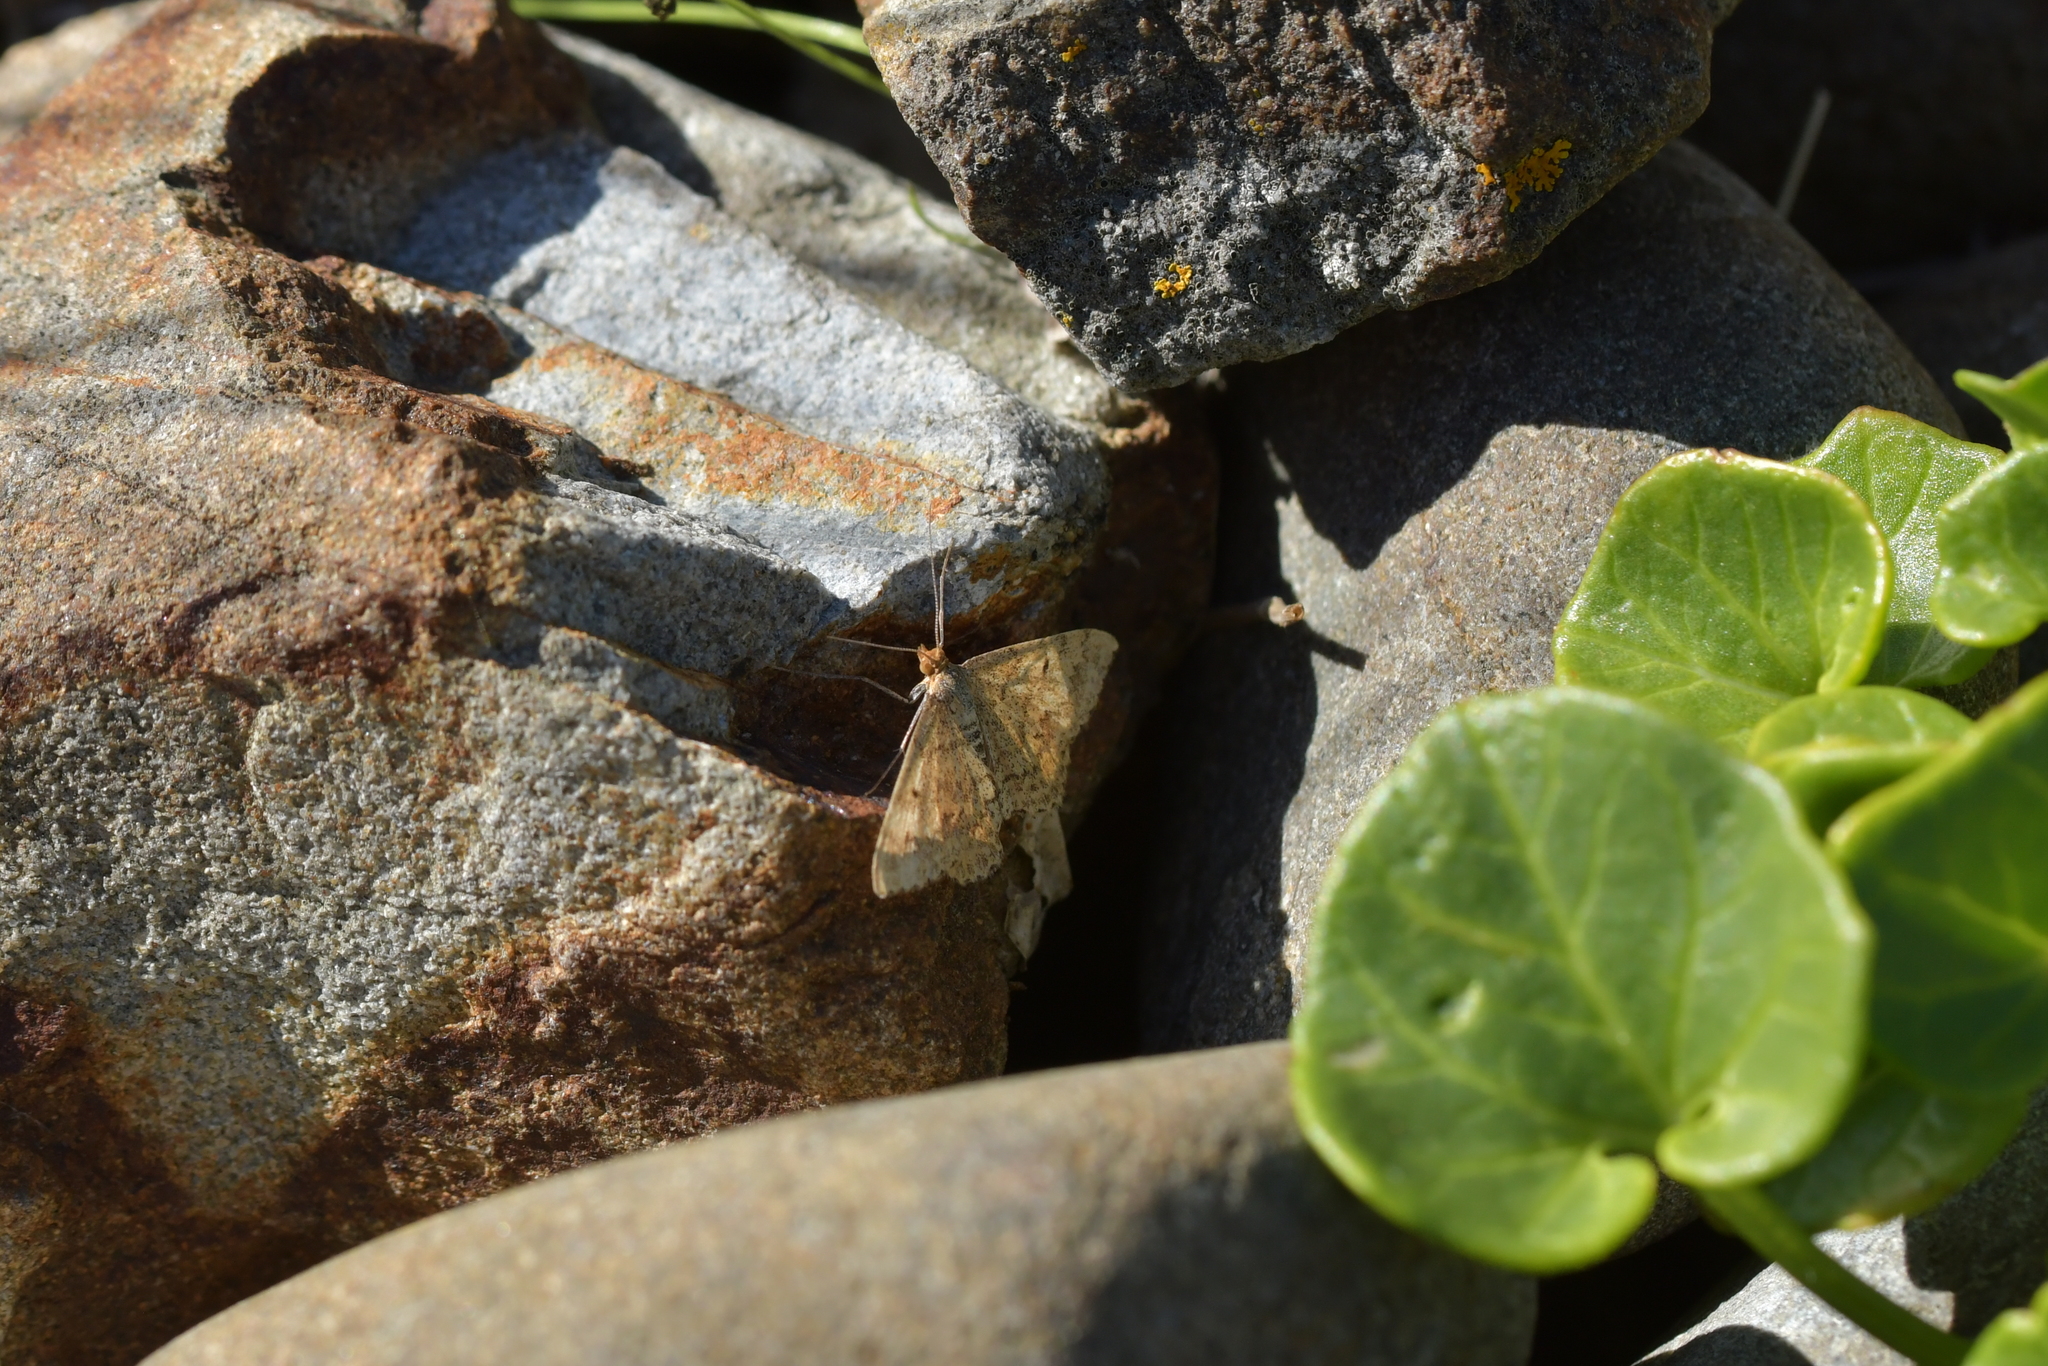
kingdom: Animalia
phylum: Arthropoda
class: Insecta
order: Lepidoptera
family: Geometridae
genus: Scopula
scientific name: Scopula rubraria
